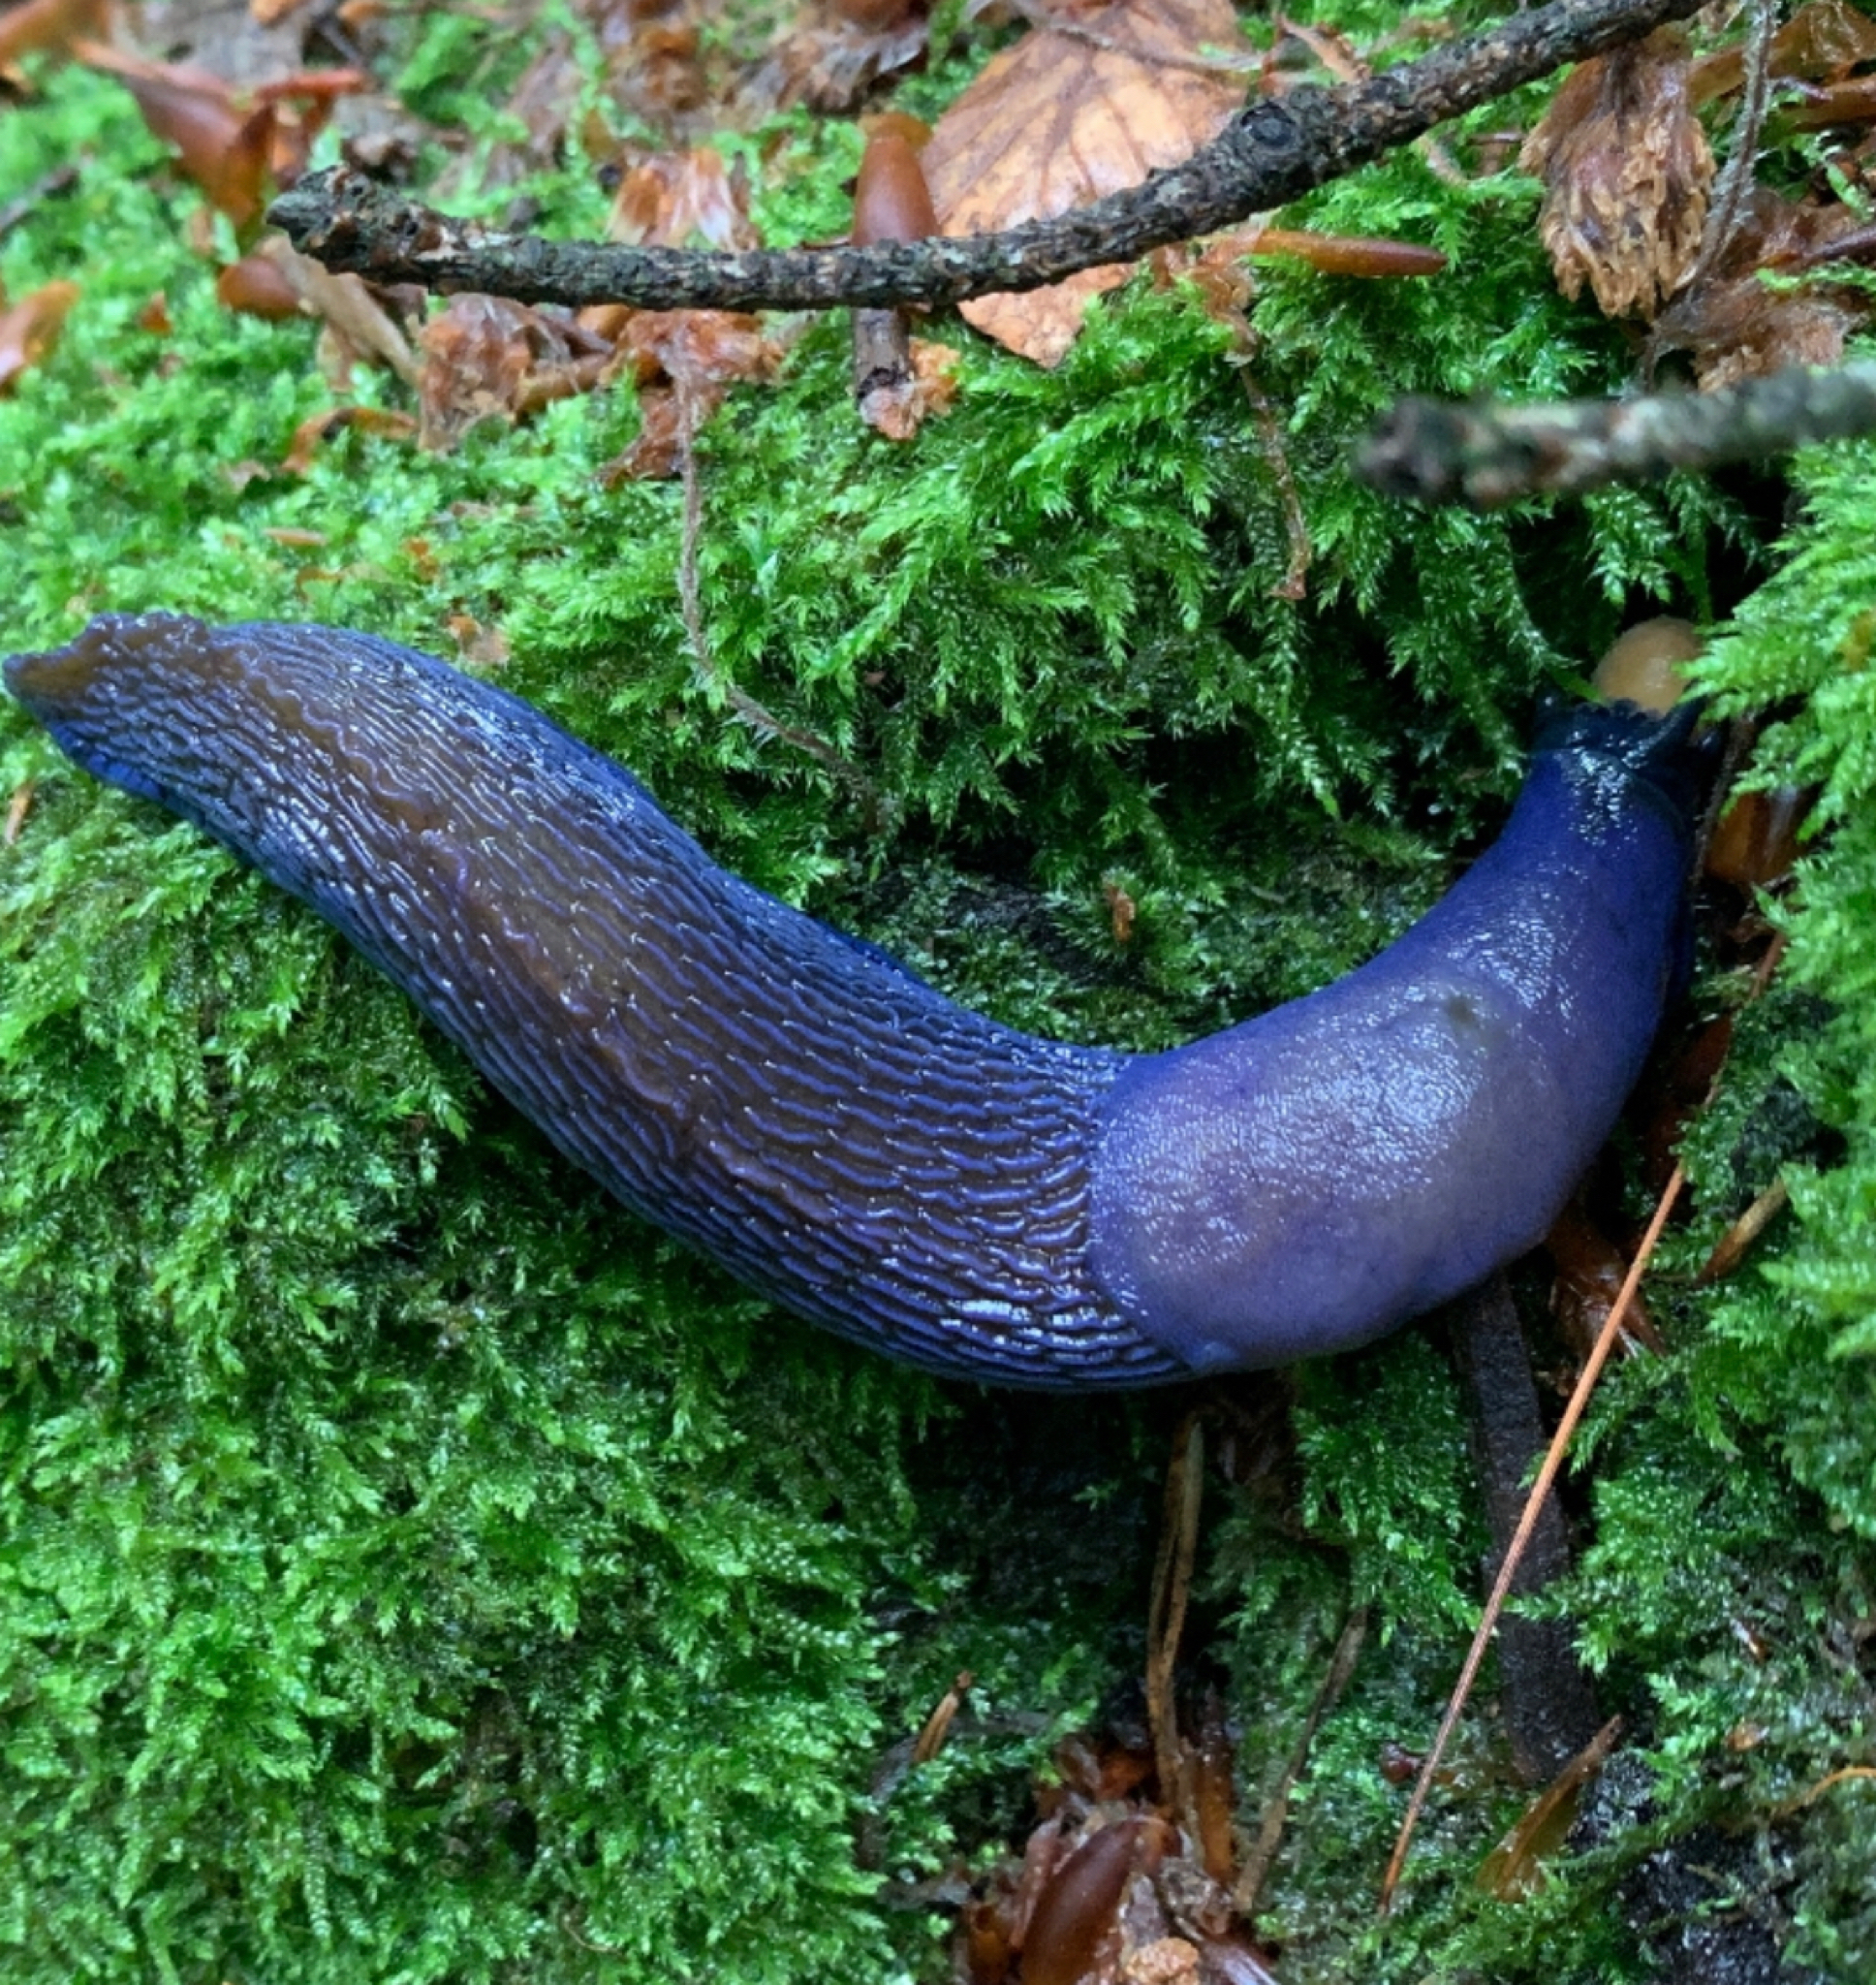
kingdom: Animalia
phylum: Mollusca
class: Gastropoda
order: Stylommatophora
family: Limacidae
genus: Bielzia
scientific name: Bielzia coerulans
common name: Carpathian blue slug
